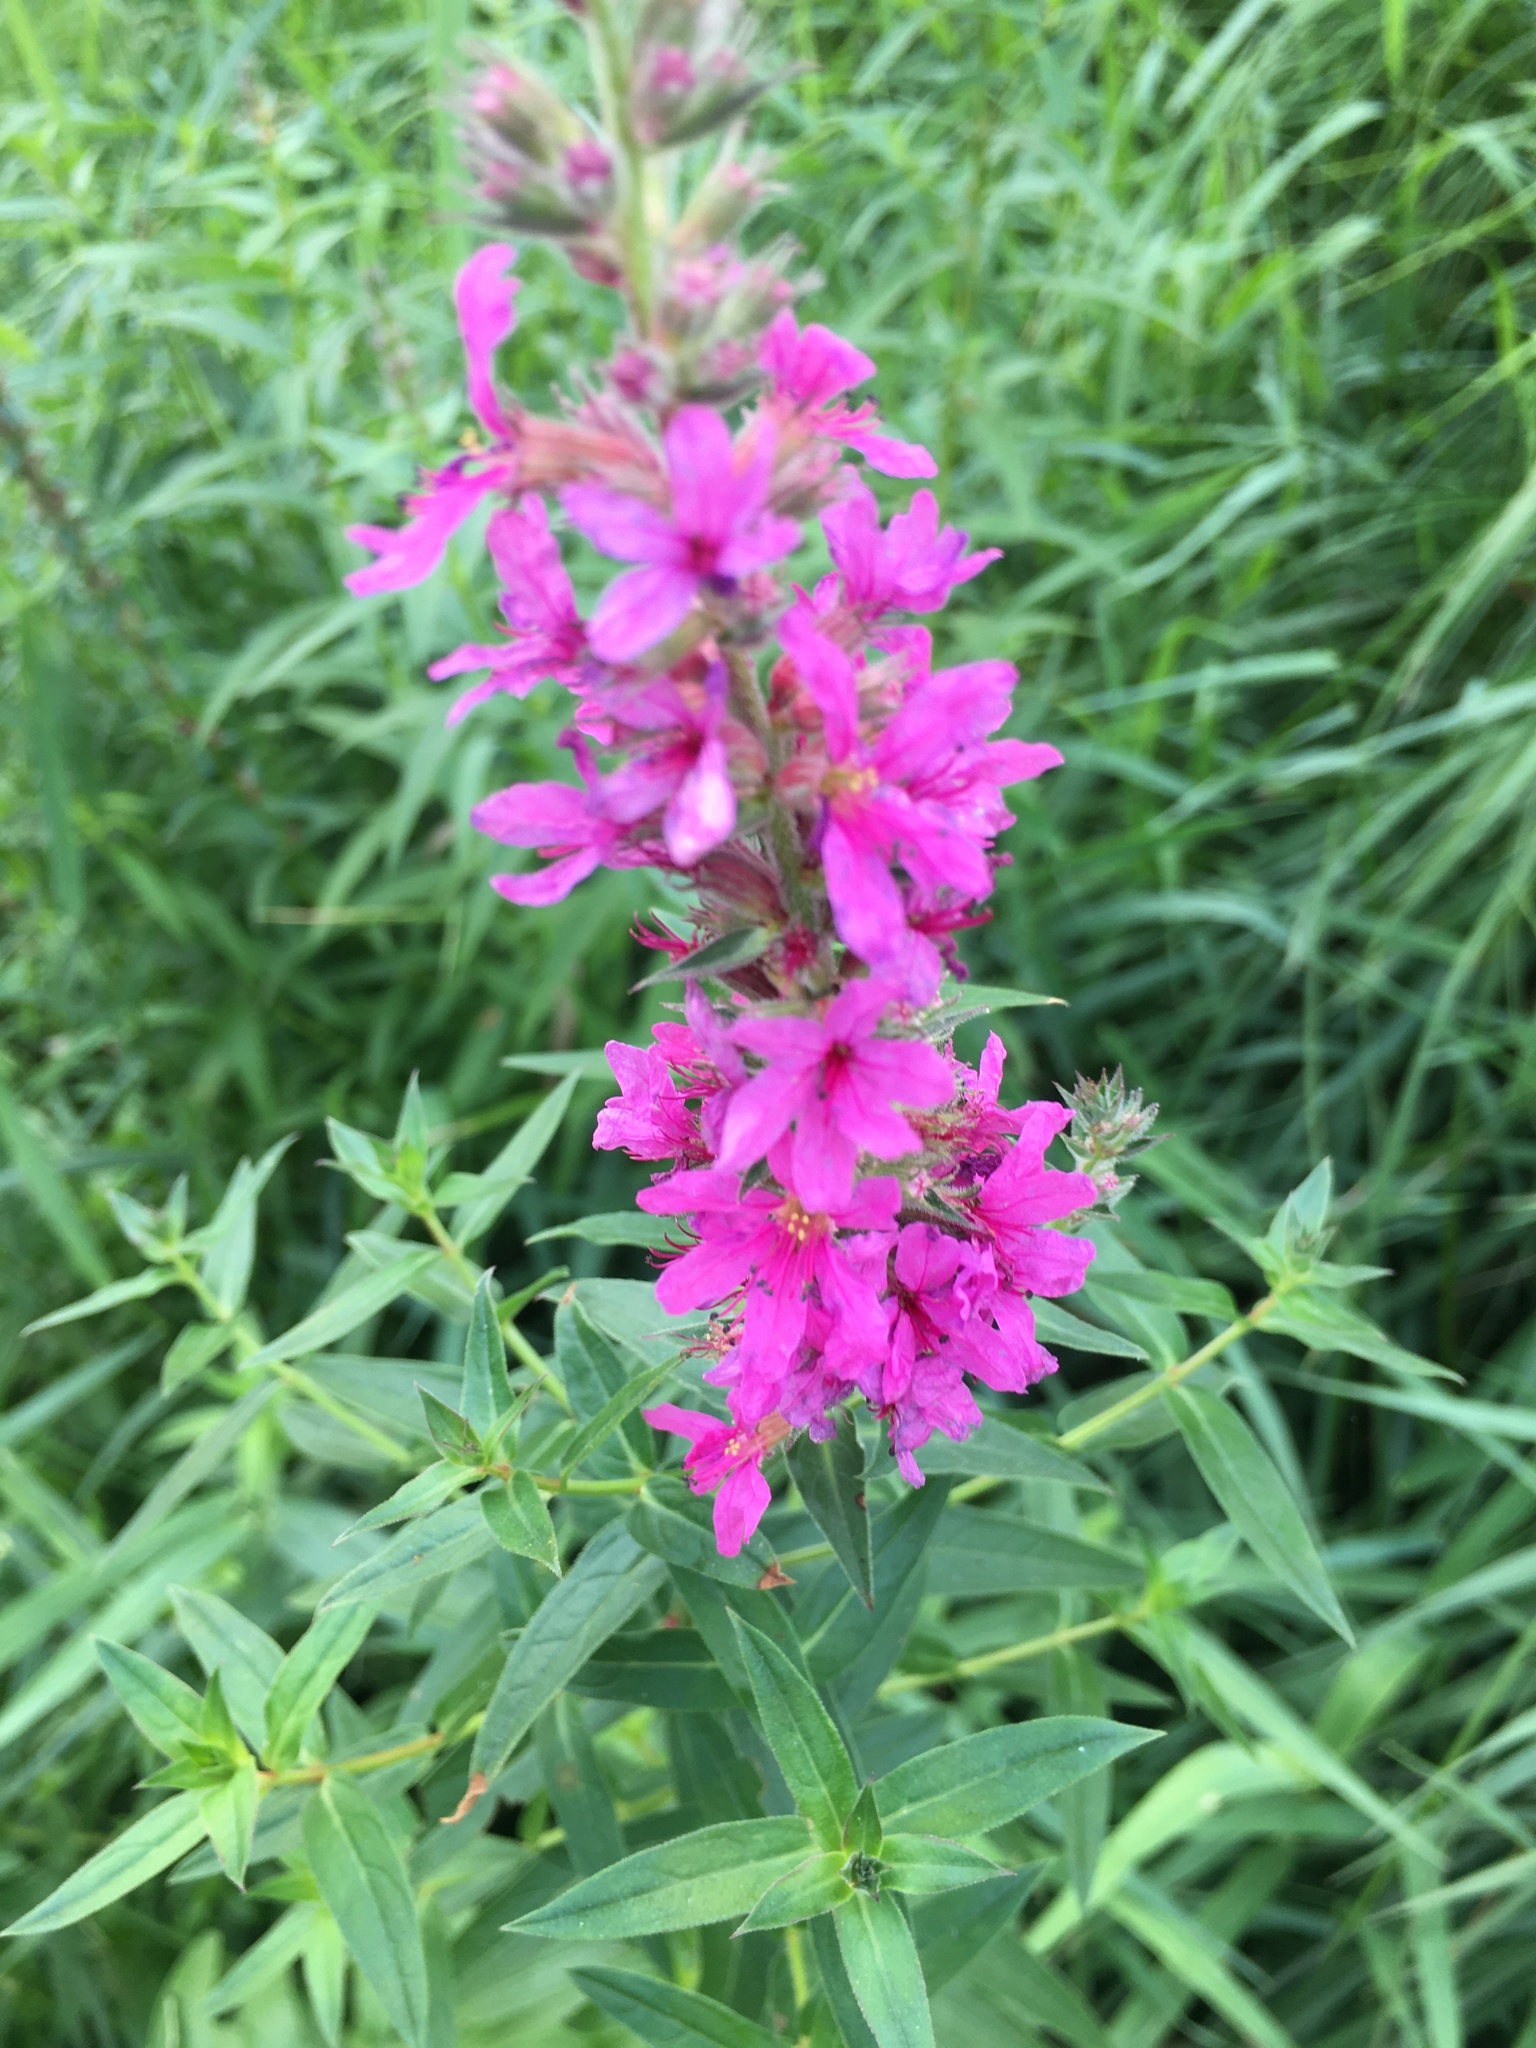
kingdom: Plantae
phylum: Tracheophyta
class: Magnoliopsida
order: Myrtales
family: Lythraceae
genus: Lythrum
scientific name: Lythrum salicaria
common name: Purple loosestrife
